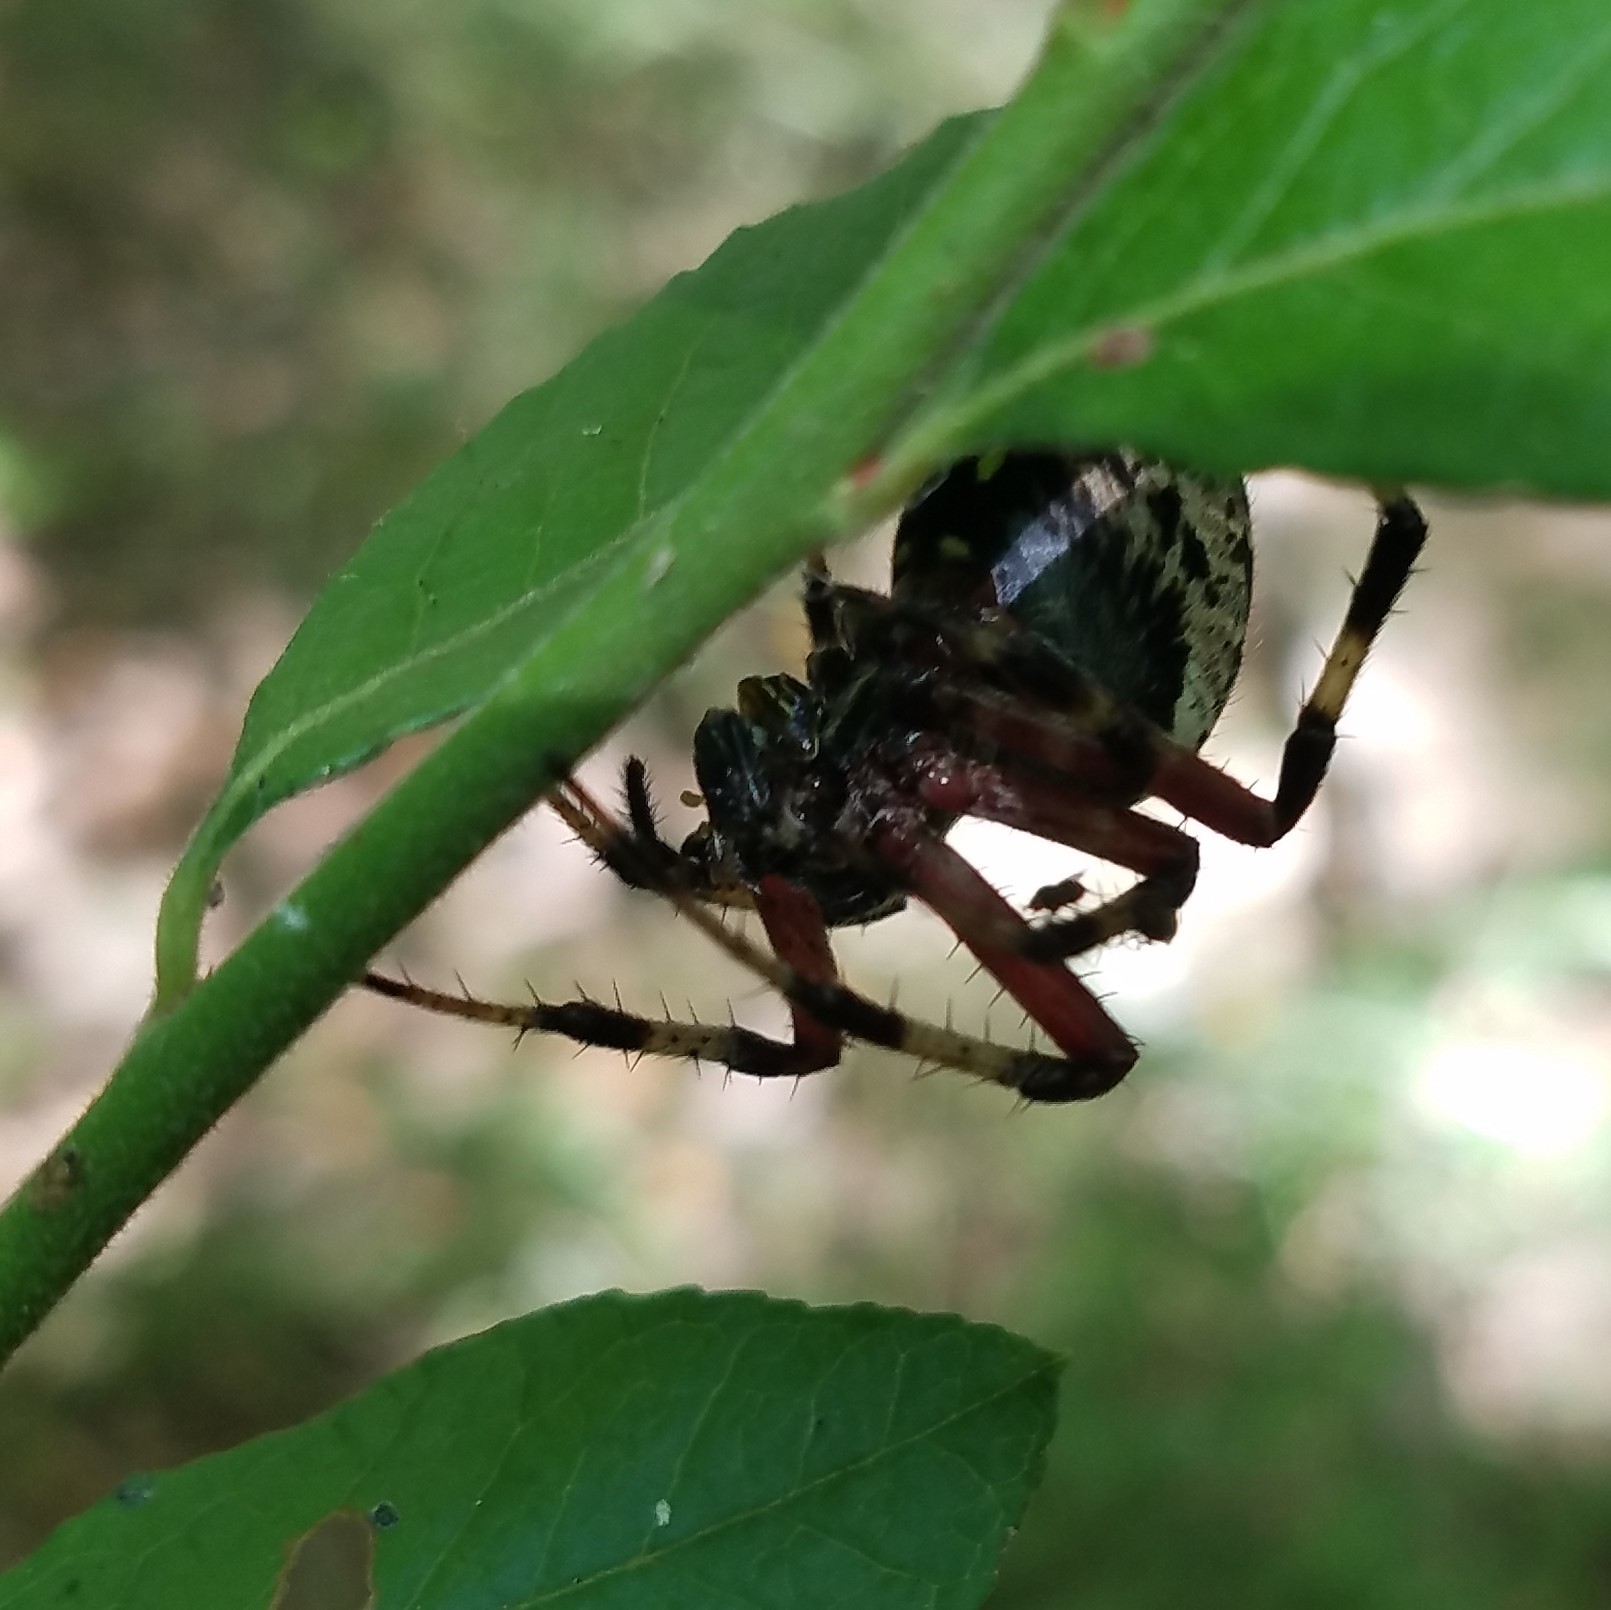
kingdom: Animalia
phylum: Arthropoda
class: Arachnida
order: Araneae
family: Araneidae
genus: Neoscona
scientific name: Neoscona domiciliorum
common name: Red-femured spotted orbweaver
